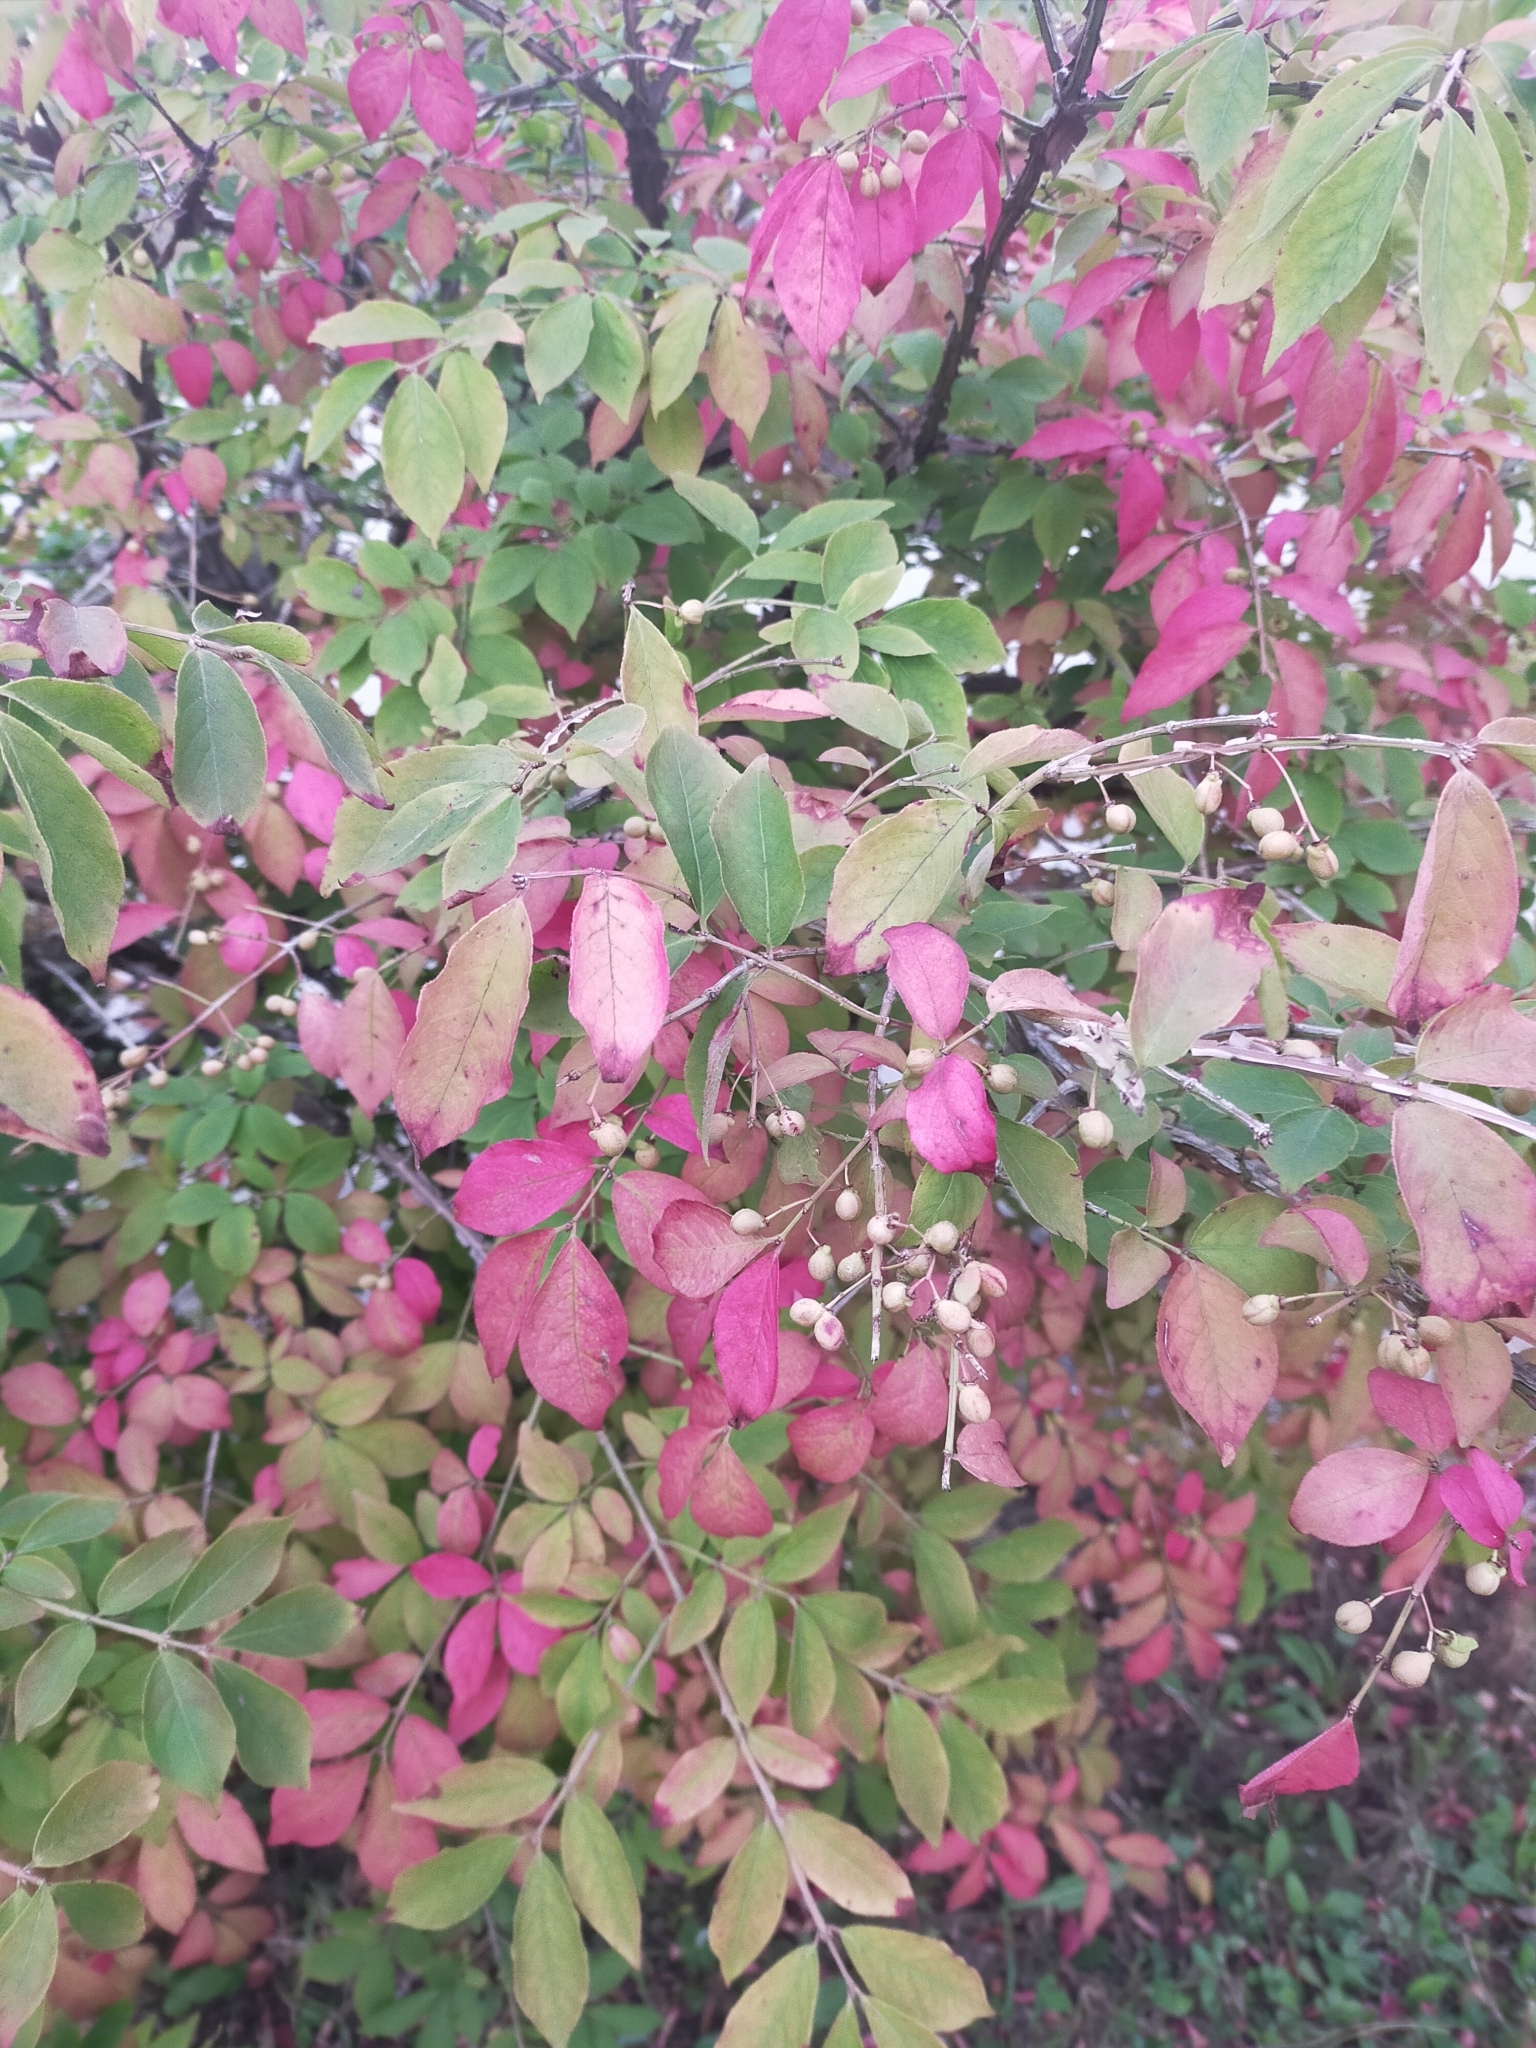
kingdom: Plantae
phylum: Tracheophyta
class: Magnoliopsida
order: Celastrales
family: Celastraceae
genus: Euonymus
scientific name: Euonymus alatus
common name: Winged euonymus
